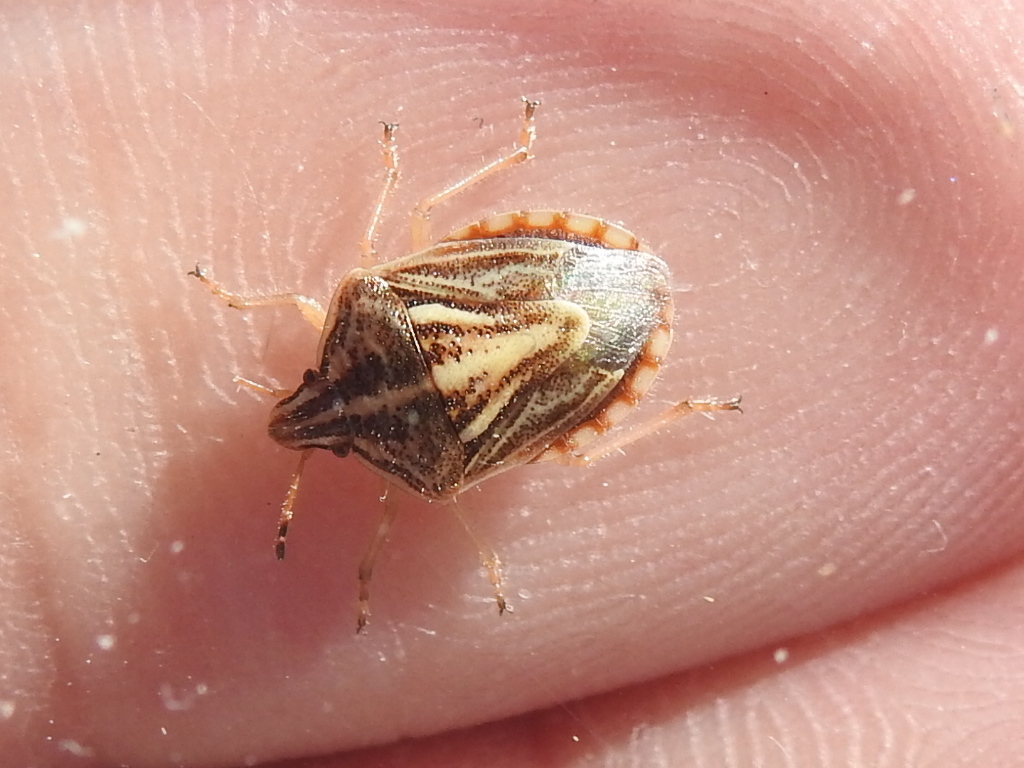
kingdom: Animalia
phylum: Arthropoda
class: Insecta
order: Hemiptera
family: Pentatomidae
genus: Trichopepla
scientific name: Trichopepla semivittata
